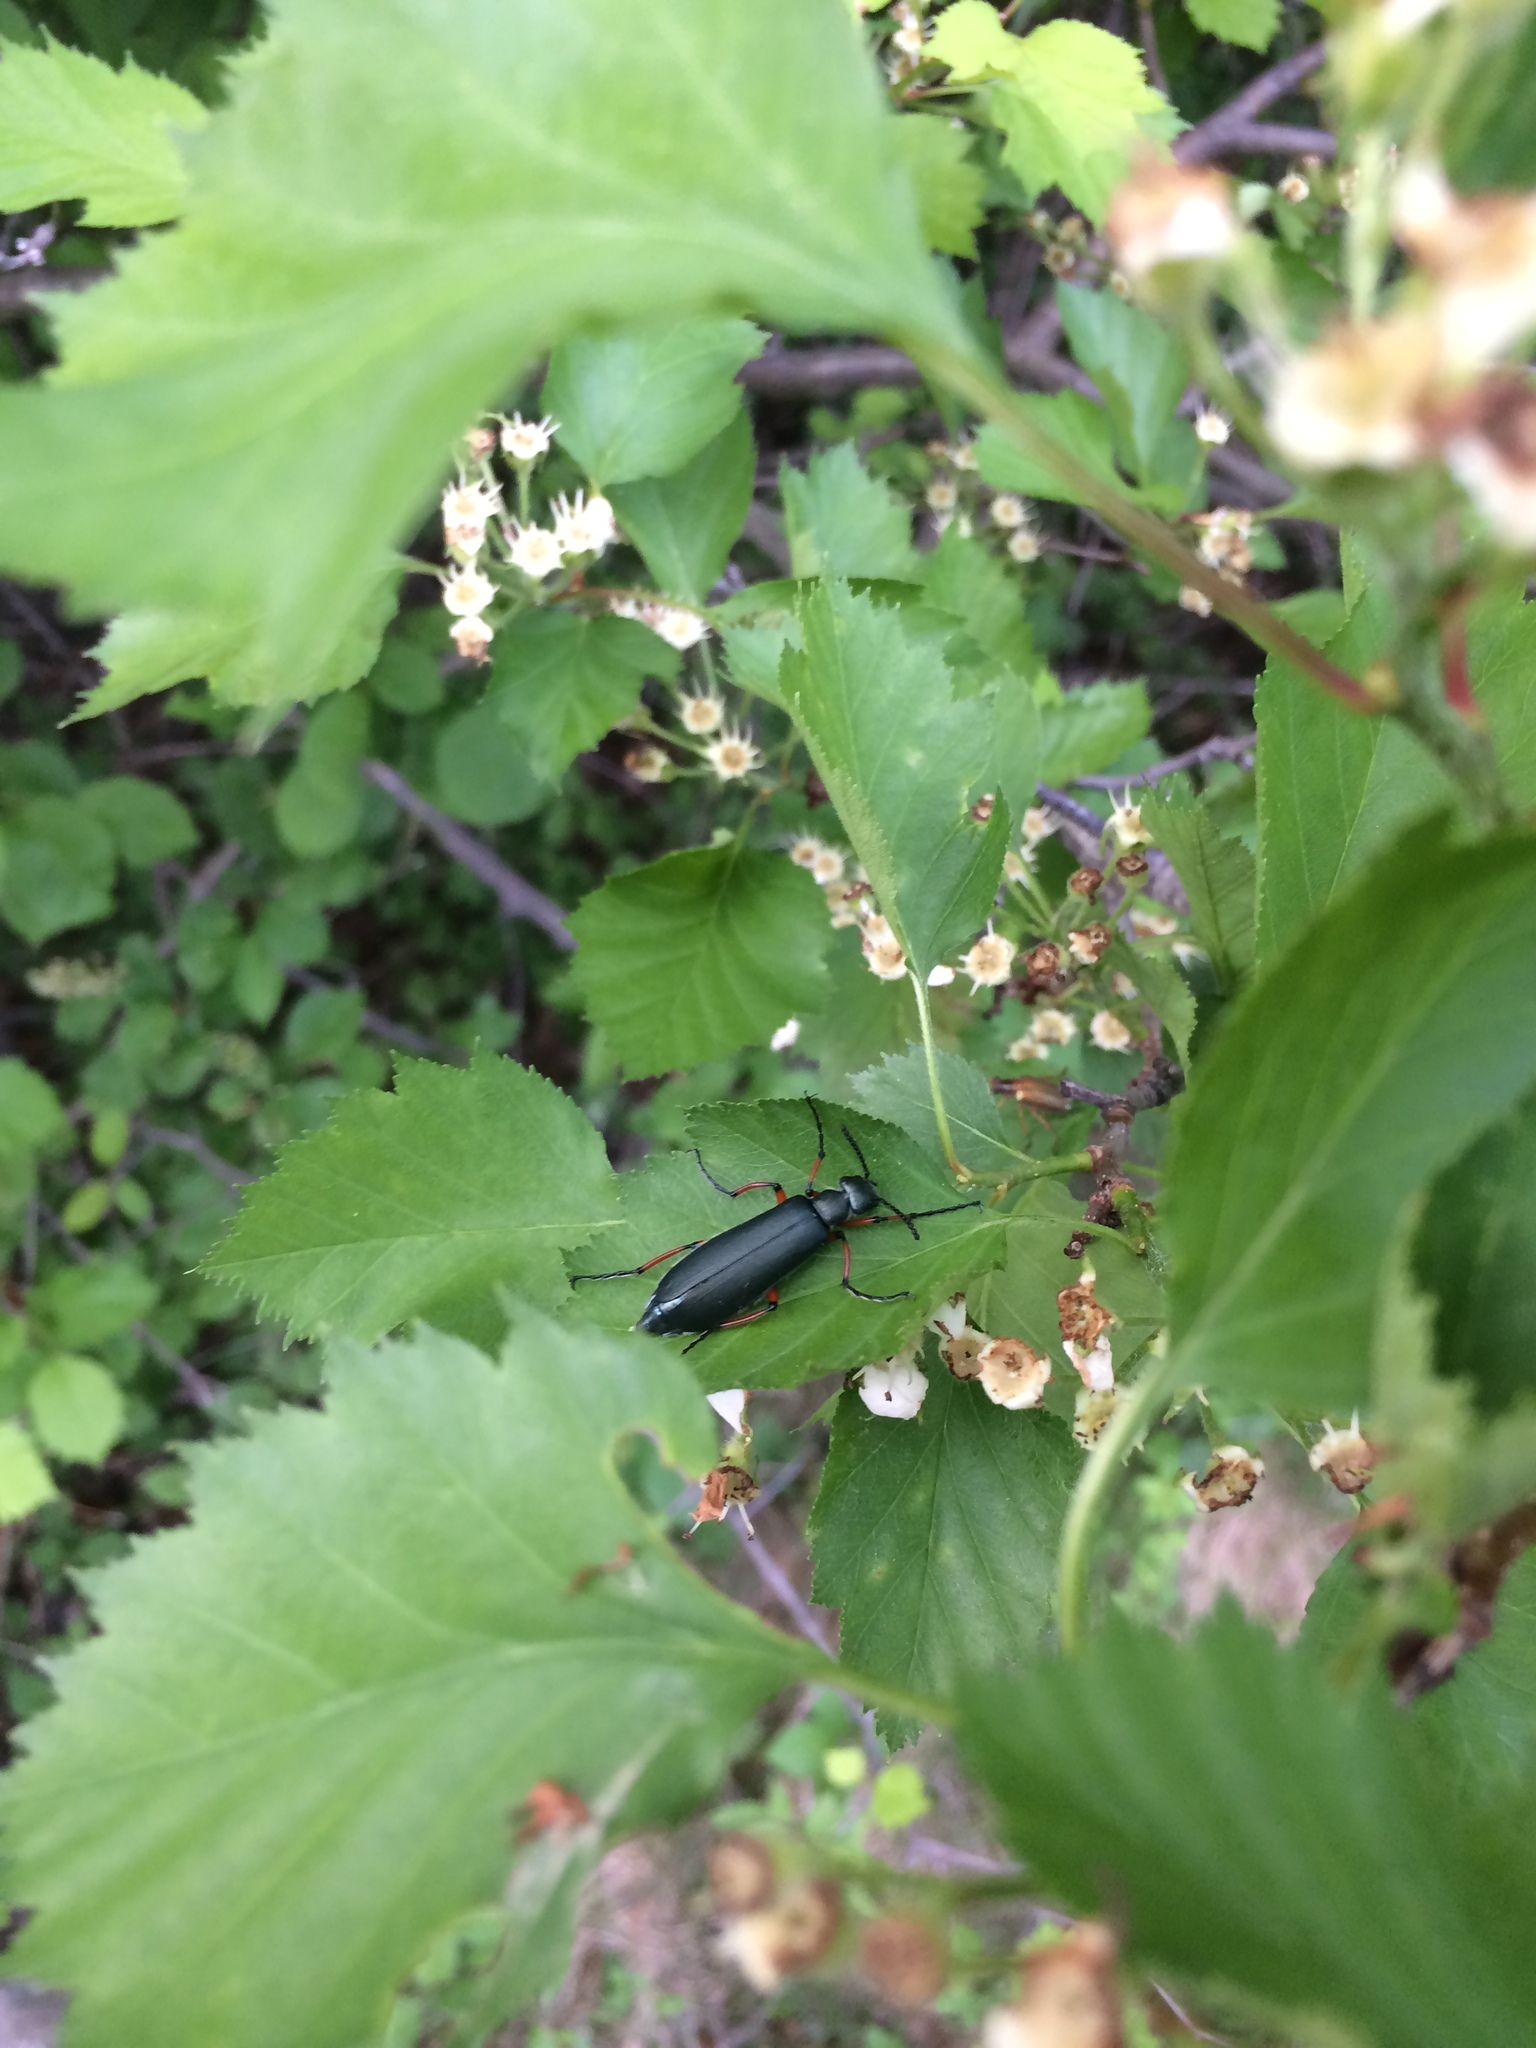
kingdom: Animalia
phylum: Arthropoda
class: Insecta
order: Coleoptera
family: Meloidae
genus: Lytta
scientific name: Lytta sayi
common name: Say's blister beetle
